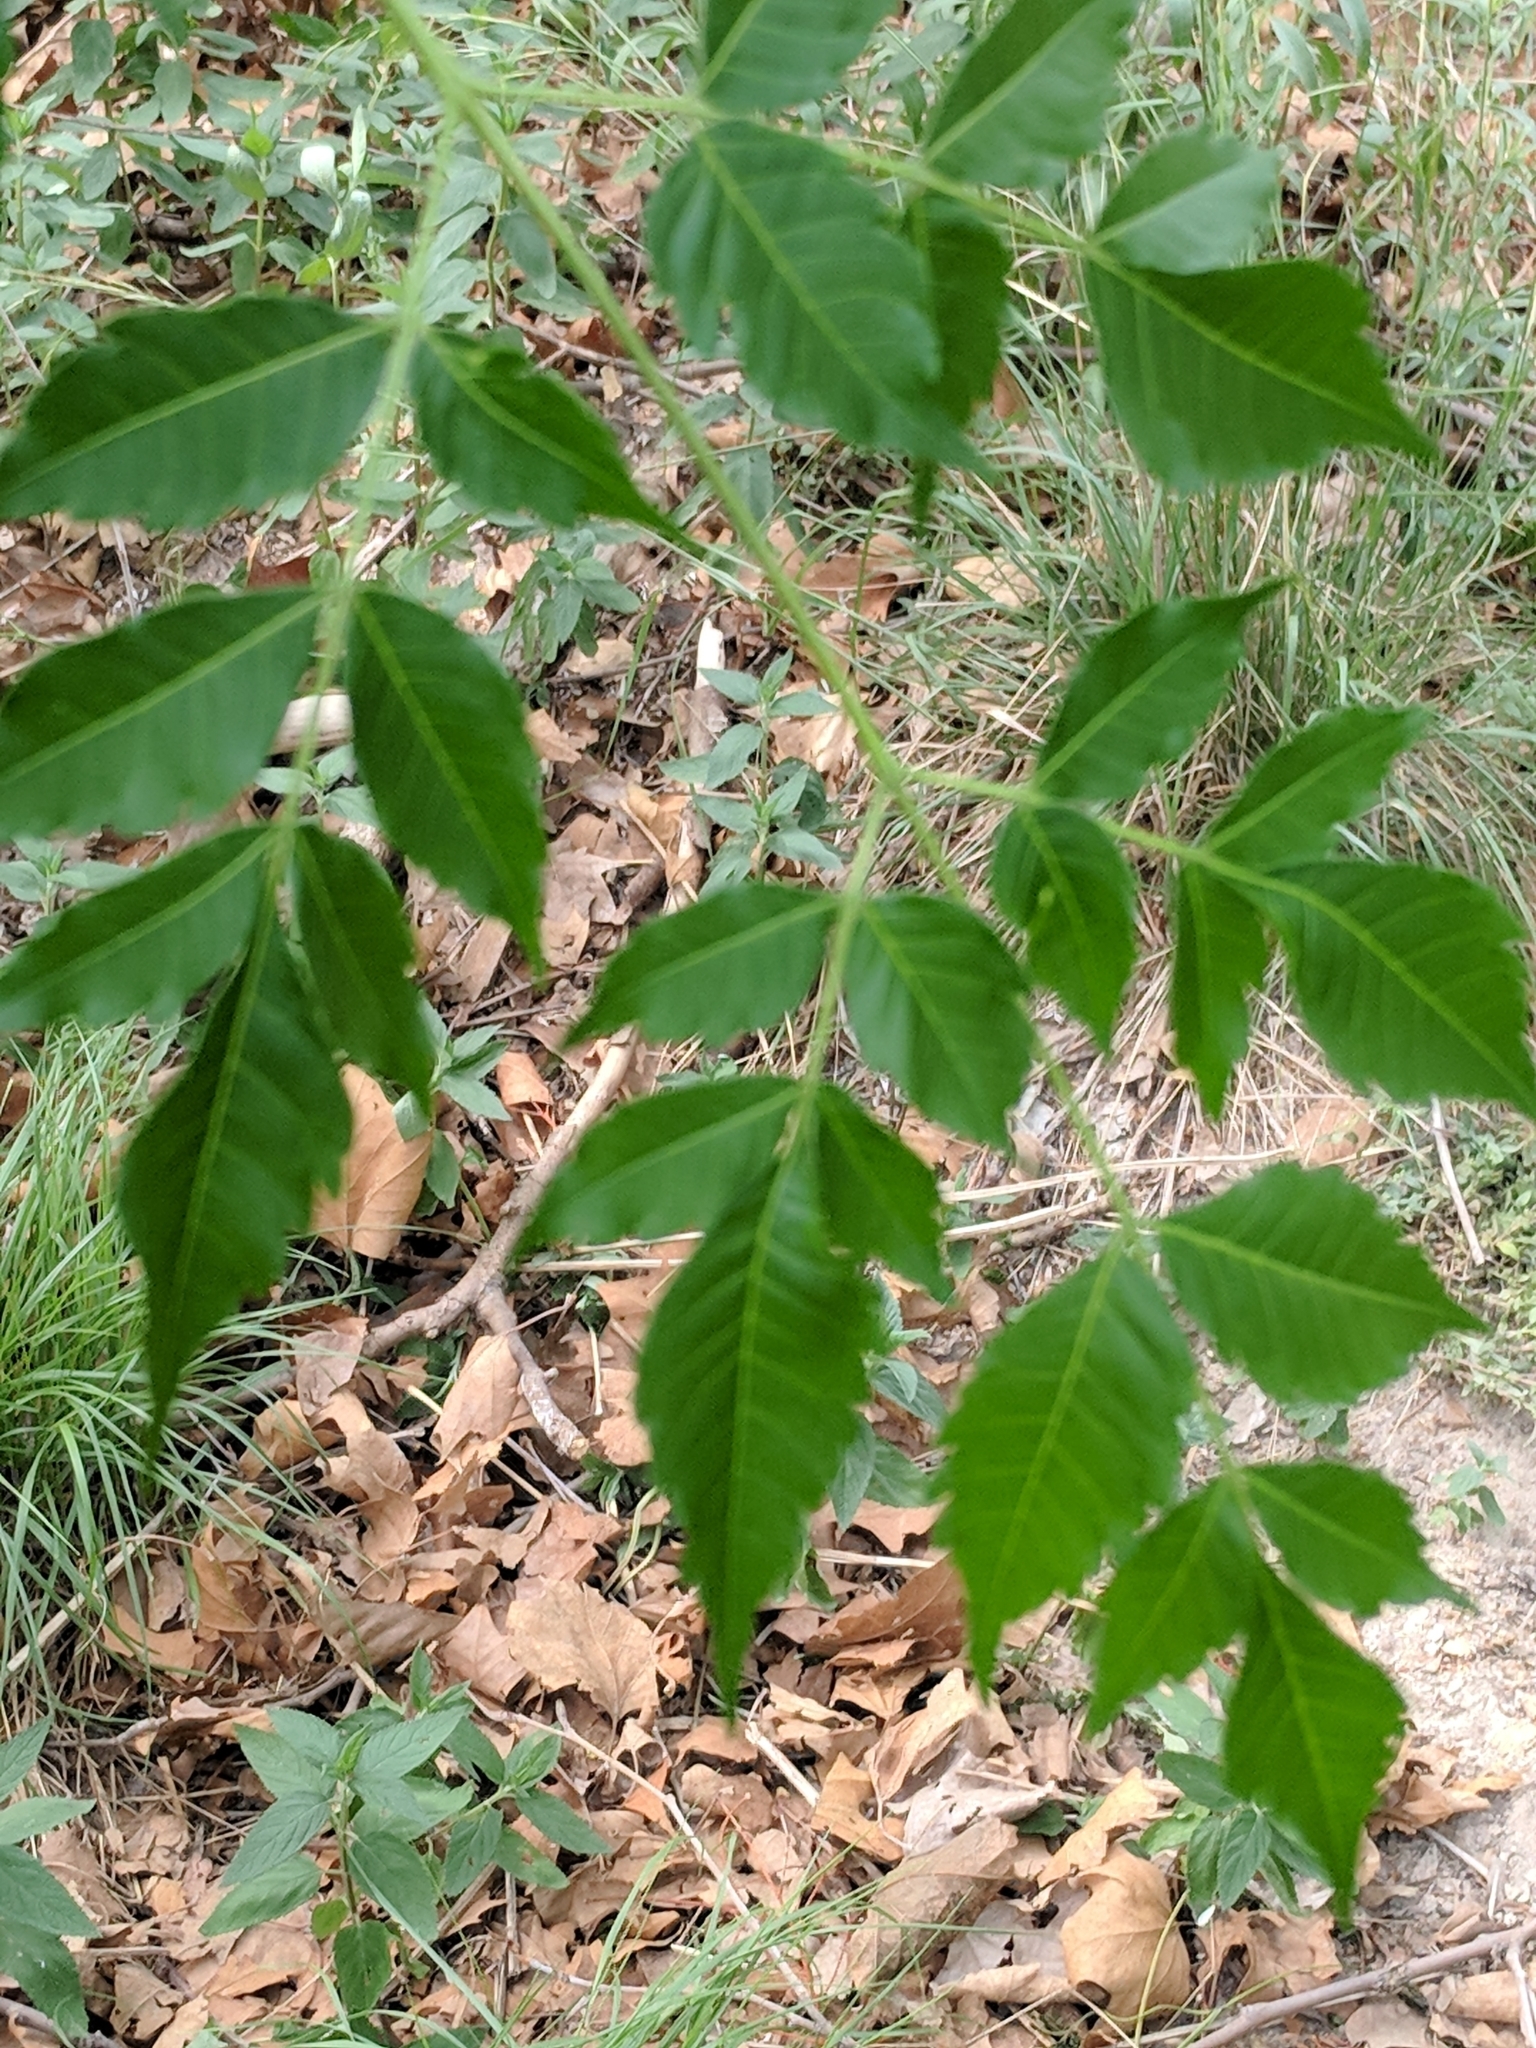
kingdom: Plantae
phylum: Tracheophyta
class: Magnoliopsida
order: Sapindales
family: Meliaceae
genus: Melia
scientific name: Melia azedarach
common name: Chinaberrytree
